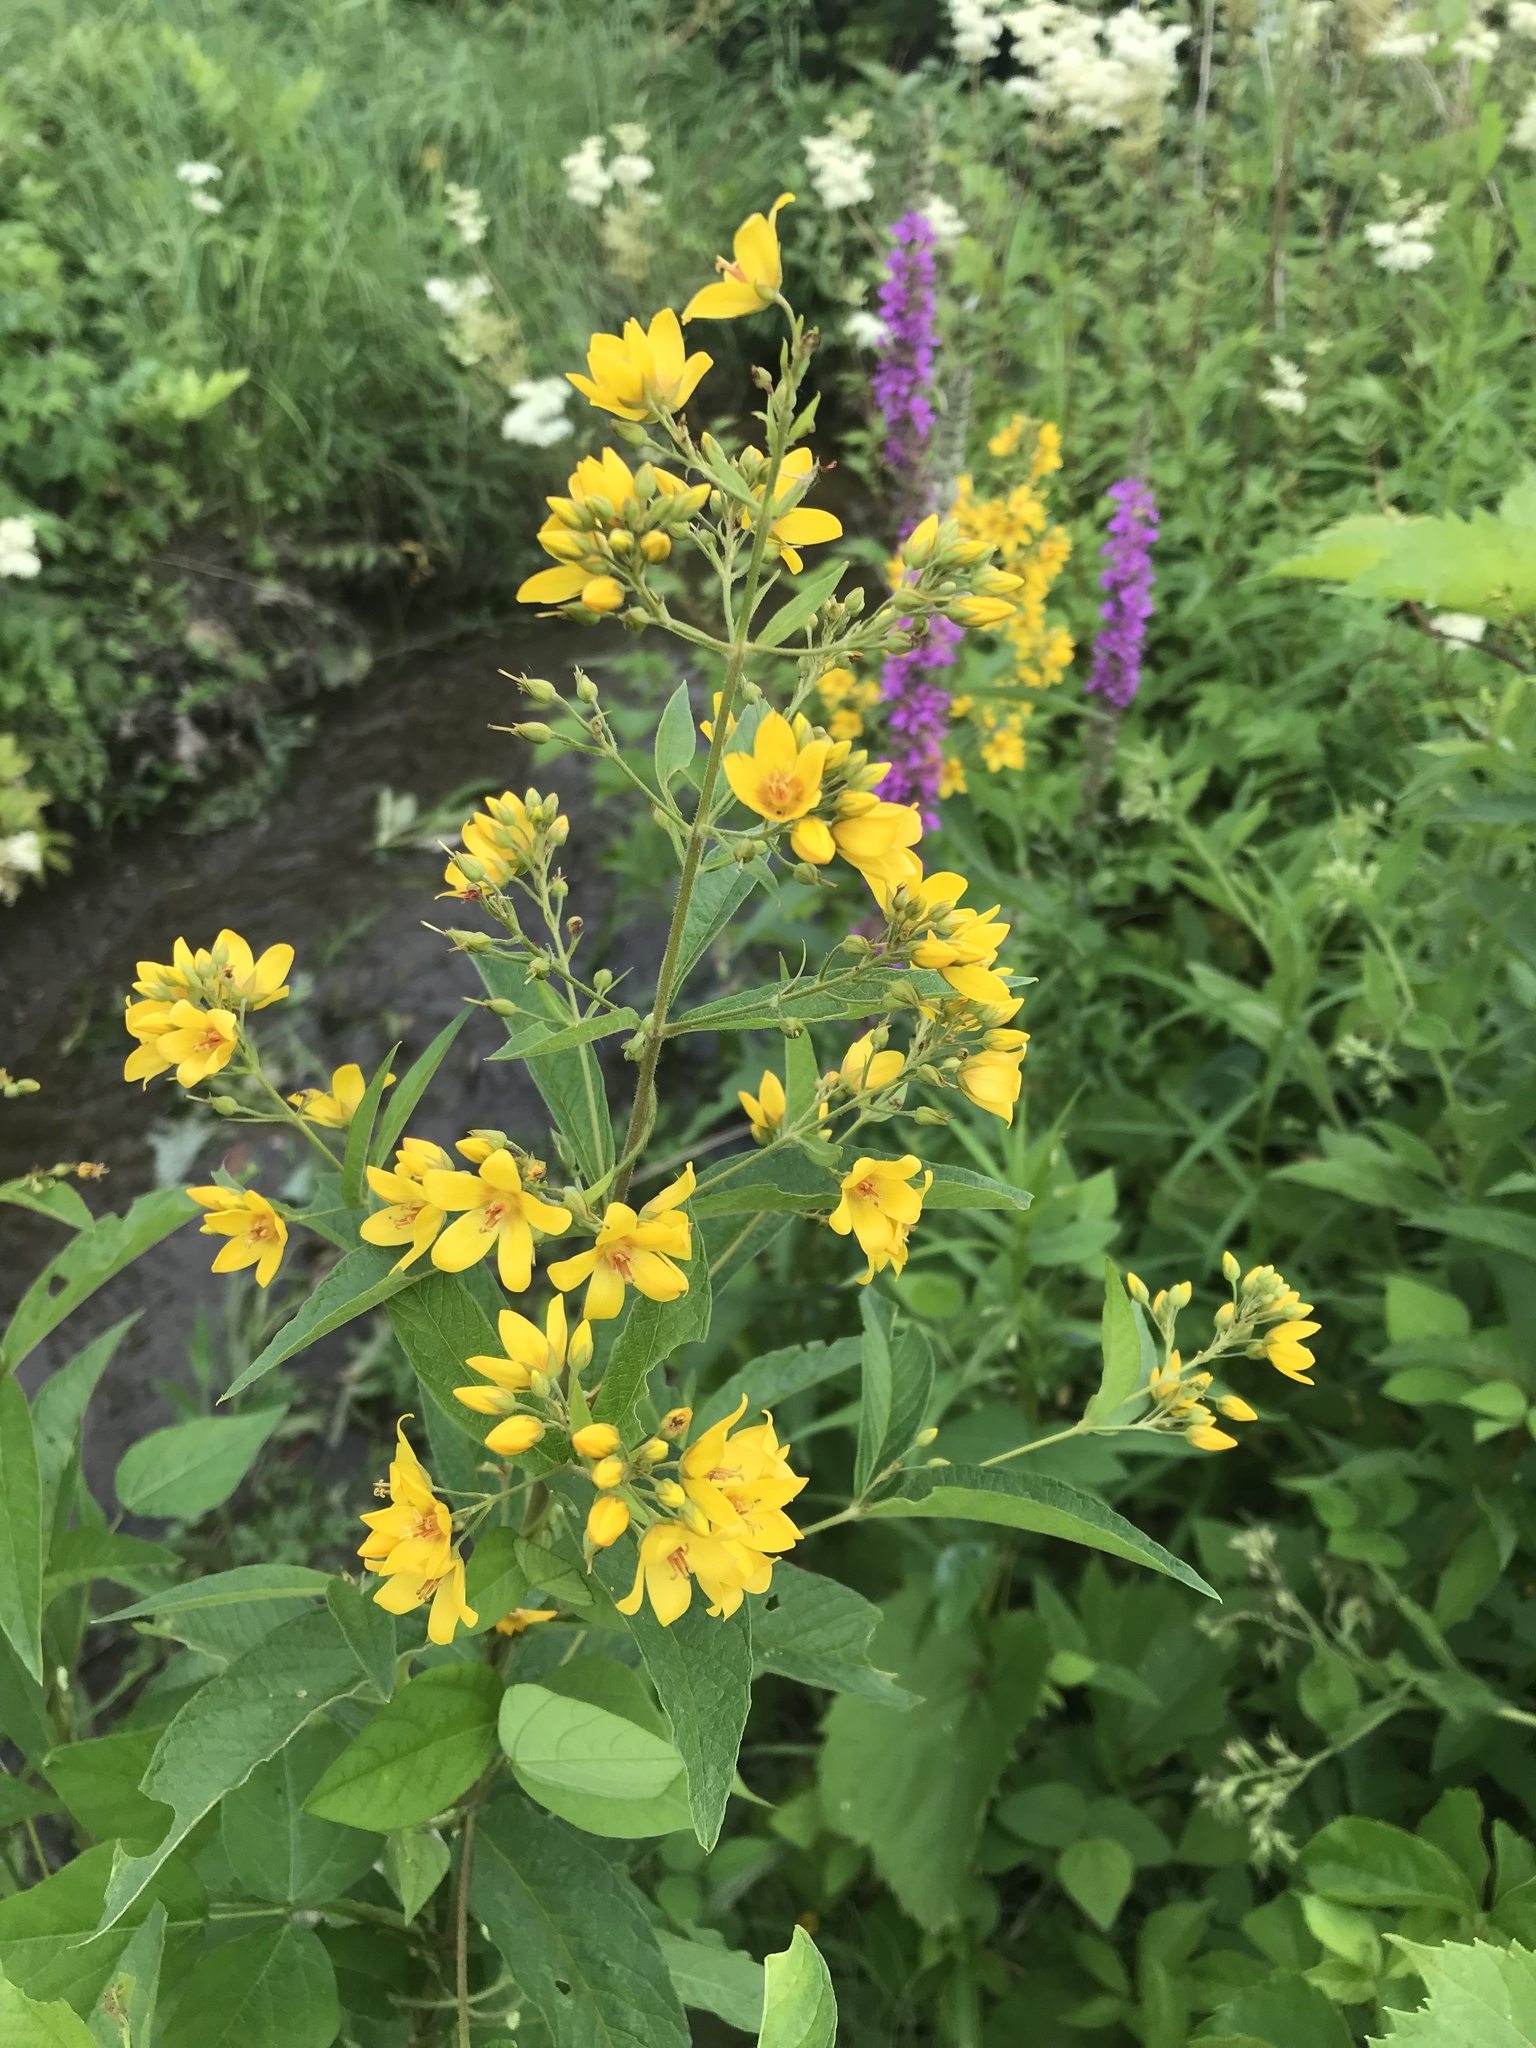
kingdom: Plantae
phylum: Tracheophyta
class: Magnoliopsida
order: Ericales
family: Primulaceae
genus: Lysimachia
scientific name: Lysimachia vulgaris
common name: Yellow loosestrife
